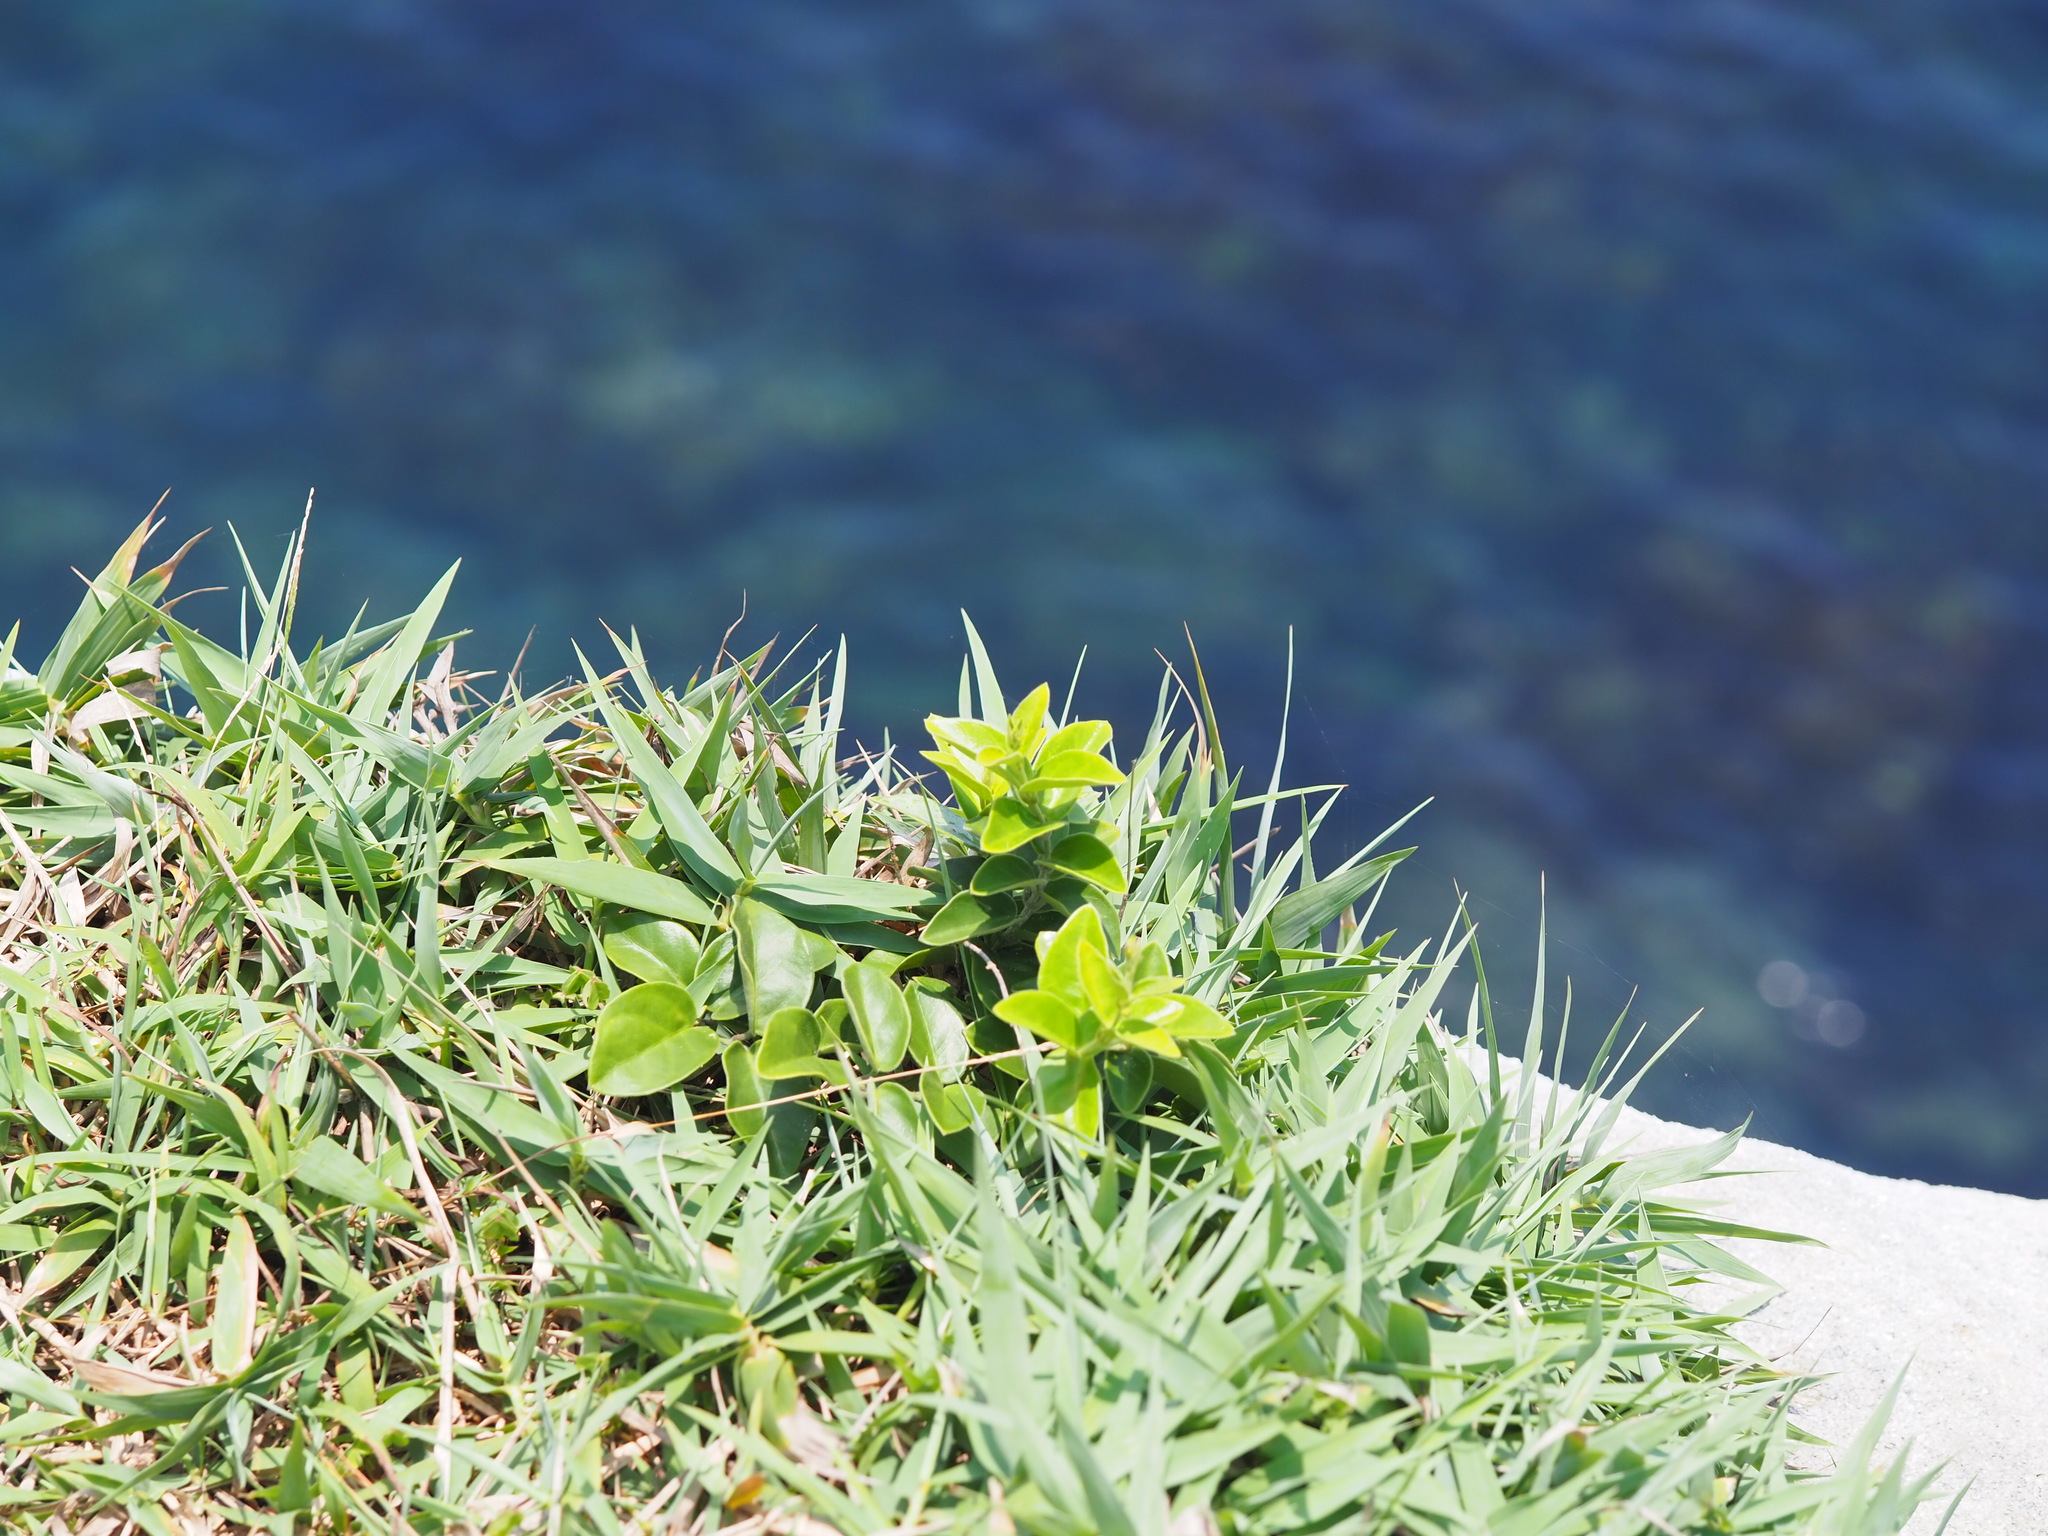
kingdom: Plantae
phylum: Tracheophyta
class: Magnoliopsida
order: Gentianales
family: Apocynaceae
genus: Vincetoxicum
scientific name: Vincetoxicum hirsutum
